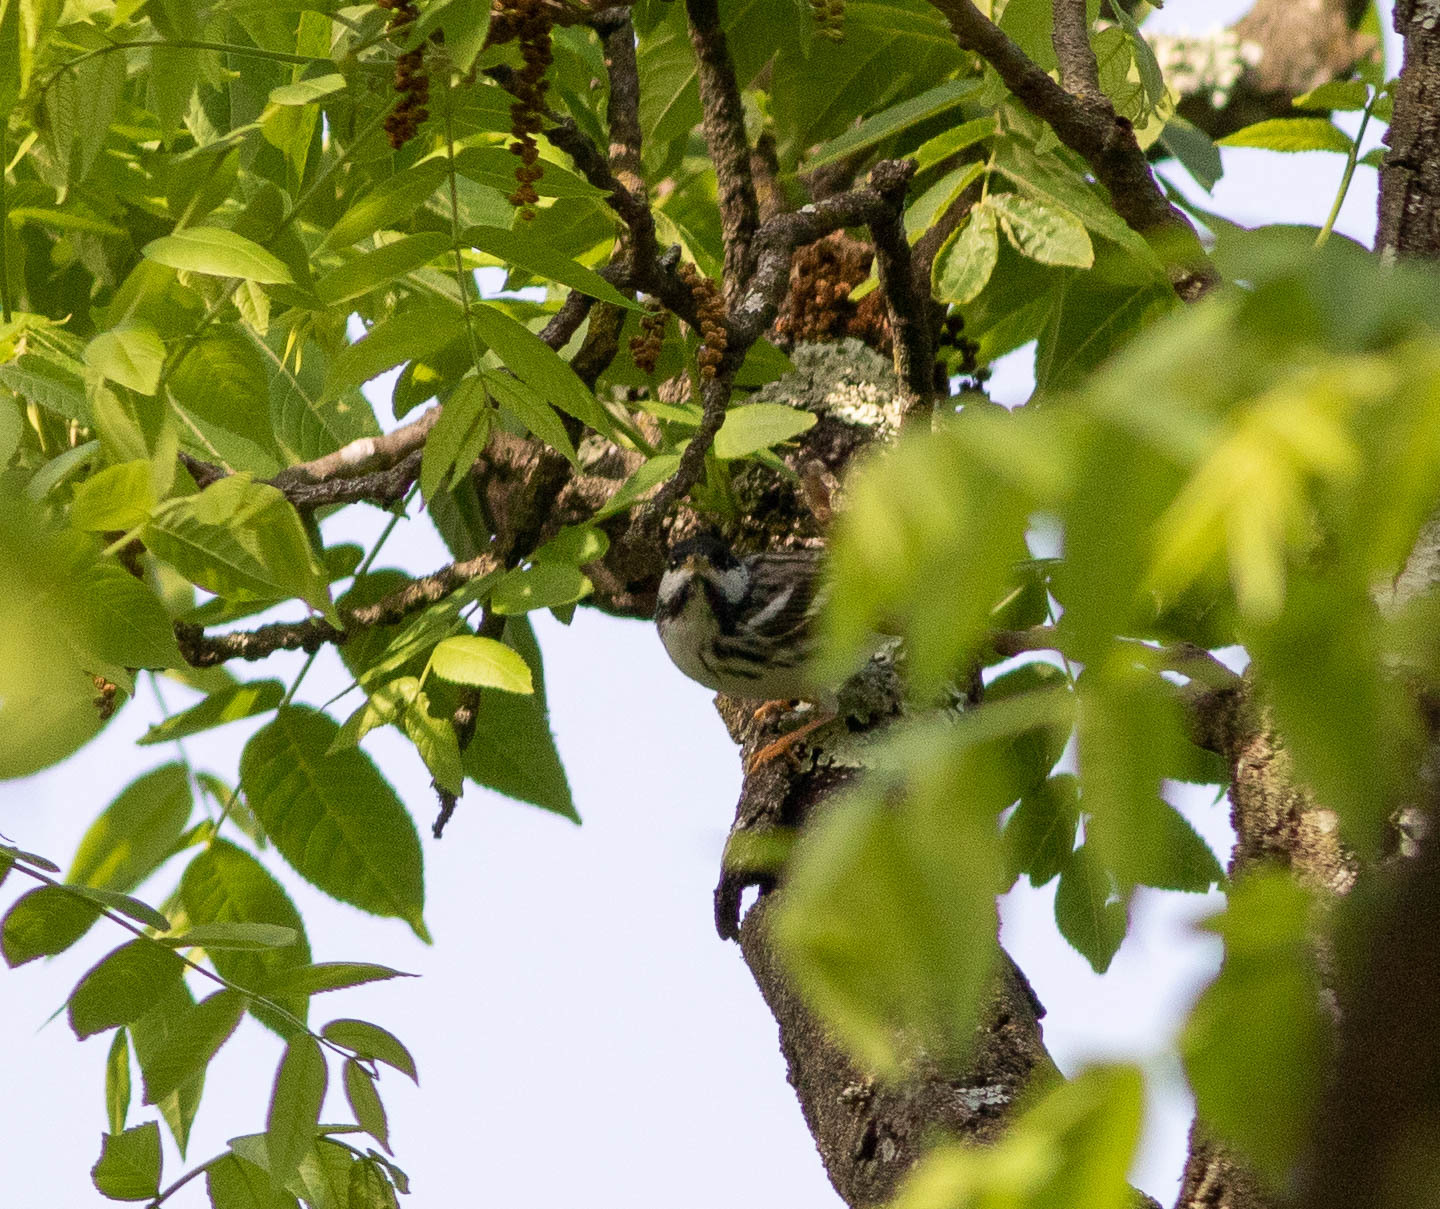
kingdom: Animalia
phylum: Chordata
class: Aves
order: Passeriformes
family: Parulidae
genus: Setophaga
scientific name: Setophaga striata
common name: Blackpoll warbler
